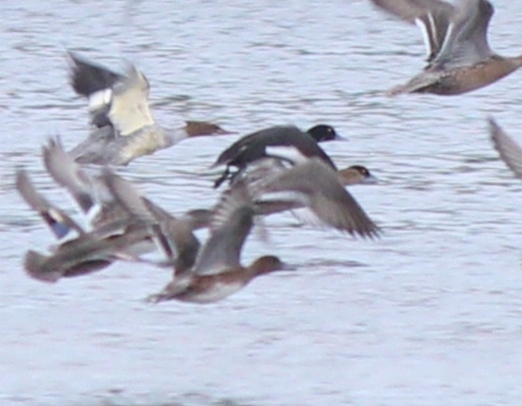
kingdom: Animalia
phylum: Chordata
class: Aves
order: Anseriformes
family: Anatidae
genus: Aythya
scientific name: Aythya fuligula
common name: Tufted duck
